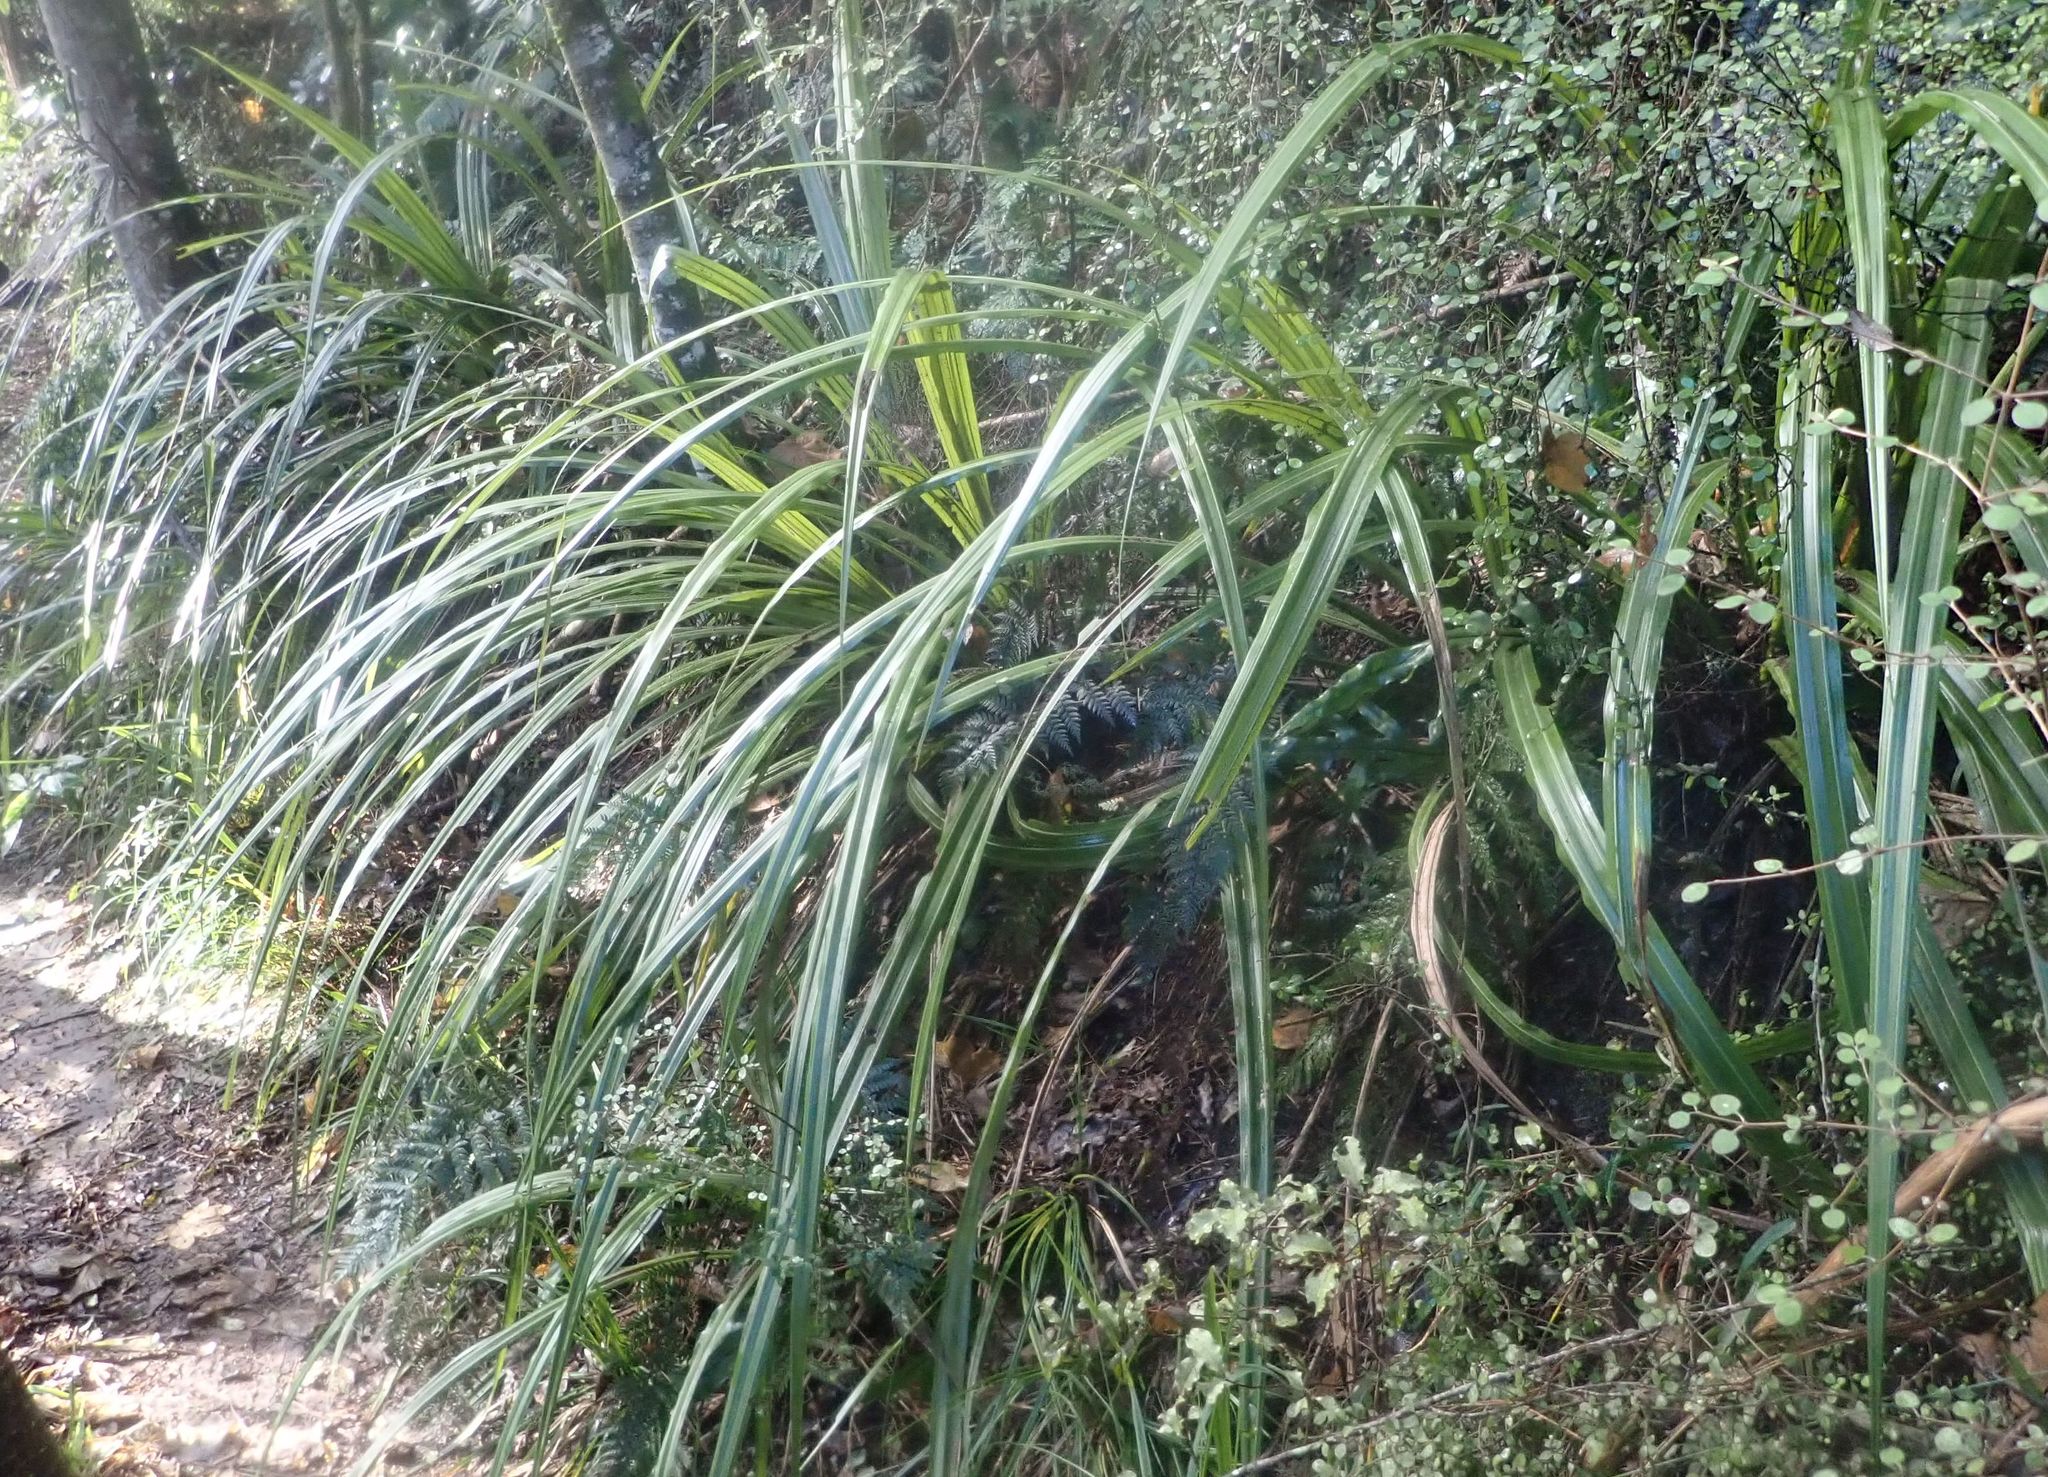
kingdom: Plantae
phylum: Tracheophyta
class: Liliopsida
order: Asparagales
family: Asteliaceae
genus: Astelia
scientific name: Astelia fragrans
